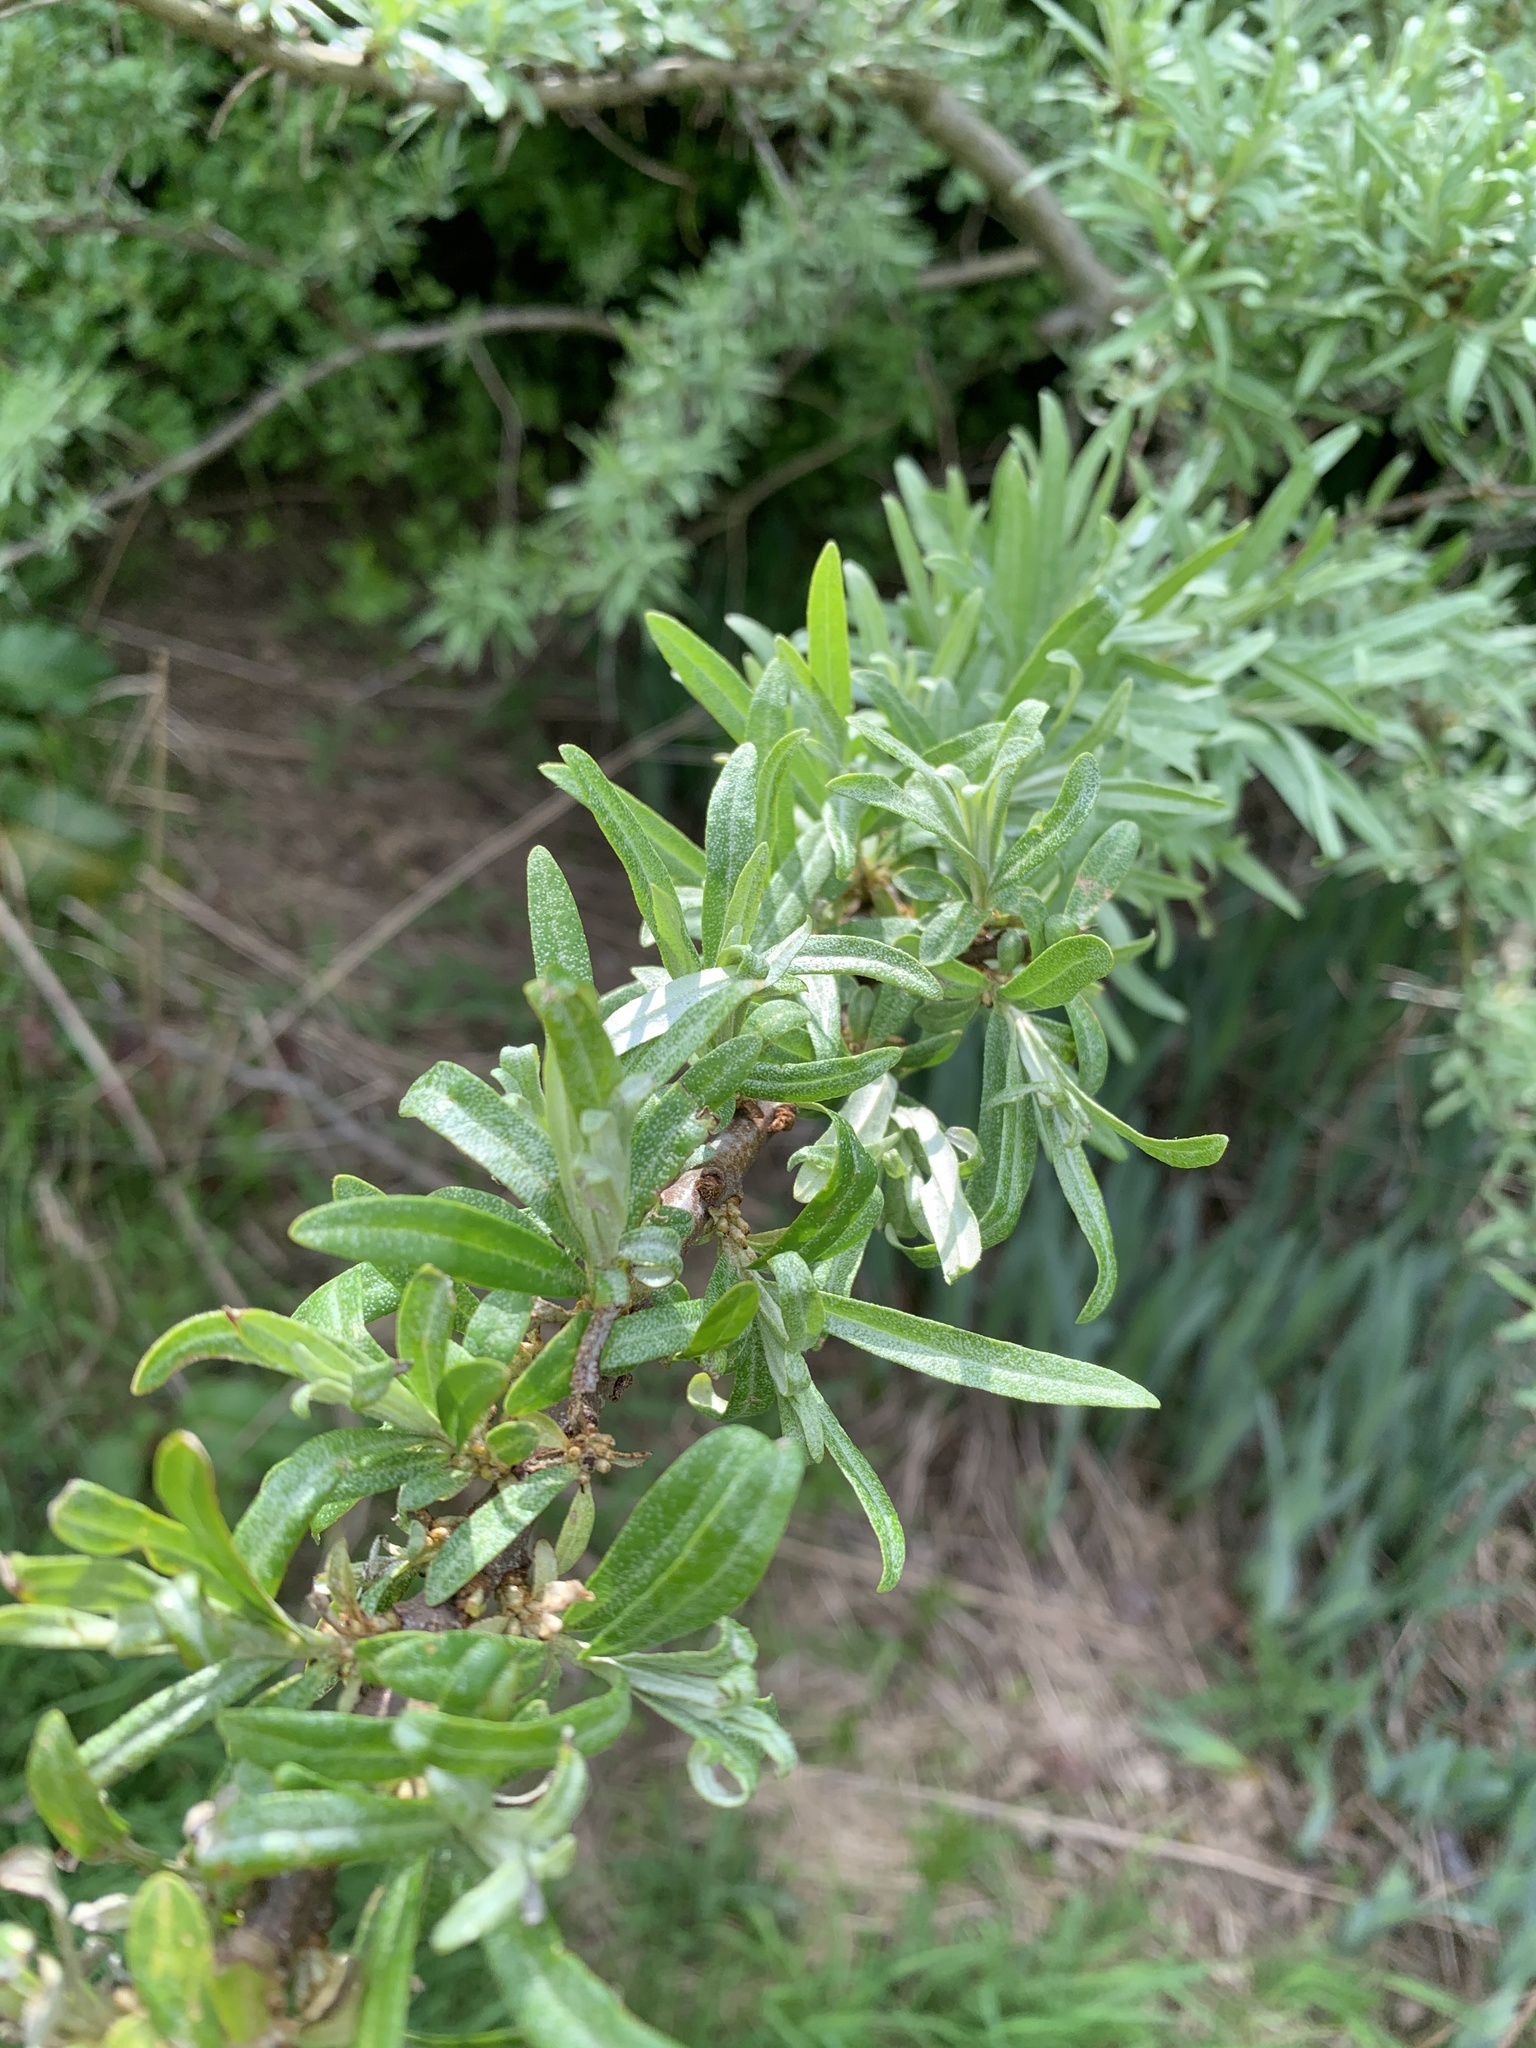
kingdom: Plantae
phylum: Tracheophyta
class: Magnoliopsida
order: Rosales
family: Elaeagnaceae
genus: Hippophae
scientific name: Hippophae rhamnoides
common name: Sea-buckthorn
